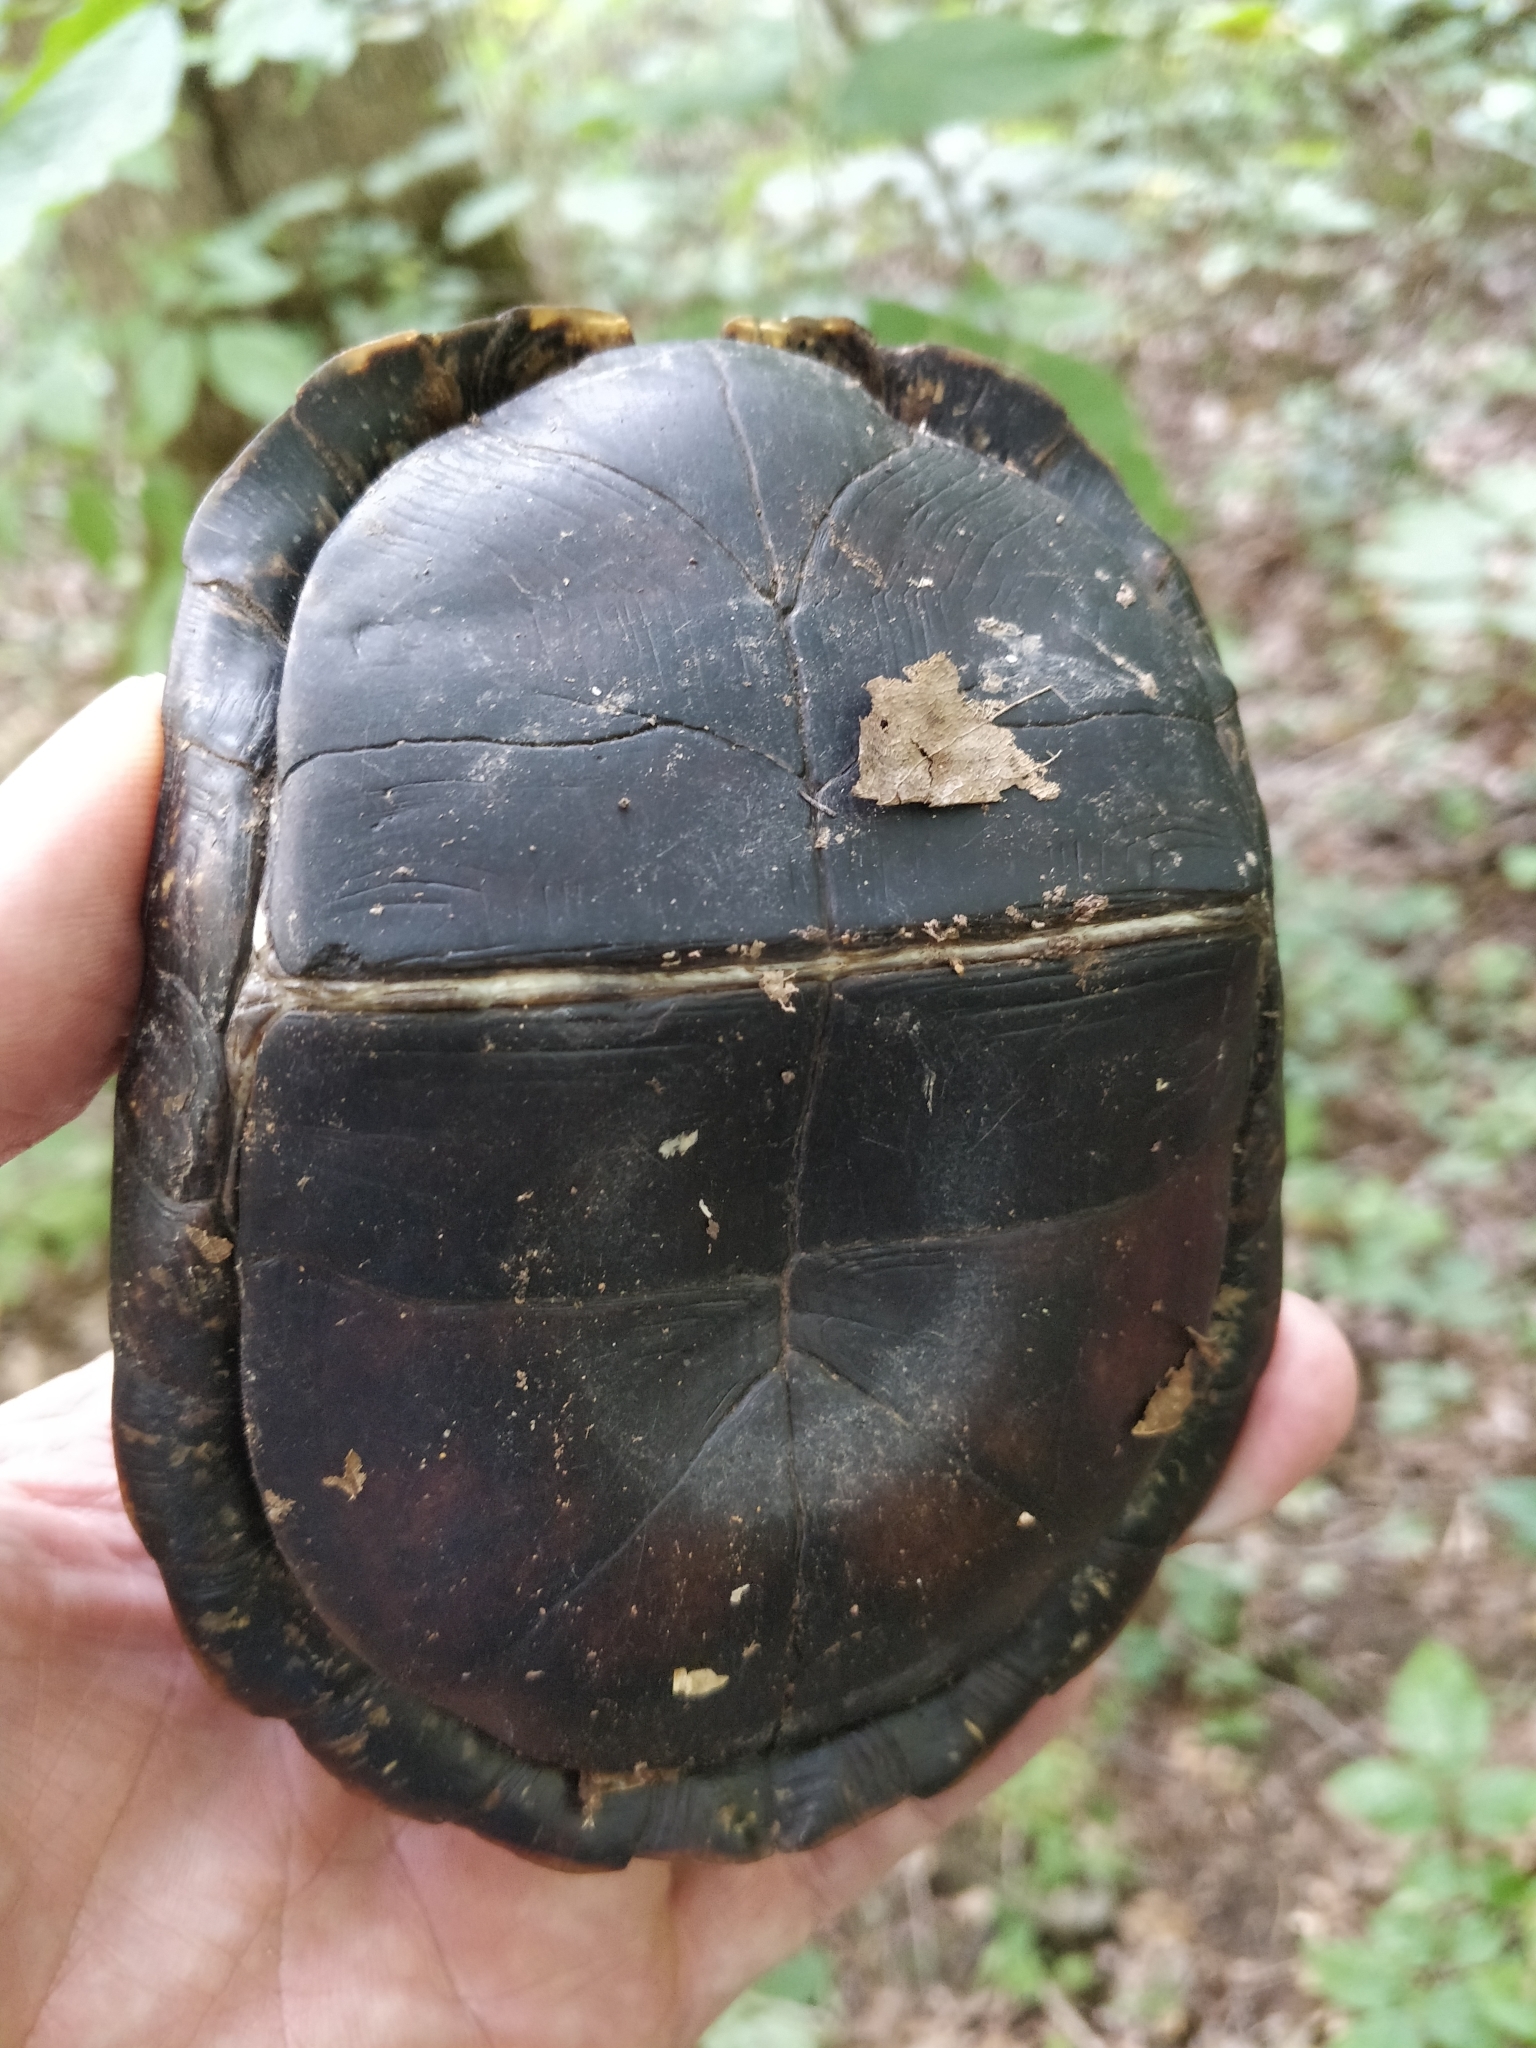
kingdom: Animalia
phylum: Chordata
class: Testudines
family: Emydidae
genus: Terrapene
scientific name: Terrapene carolina
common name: Common box turtle
